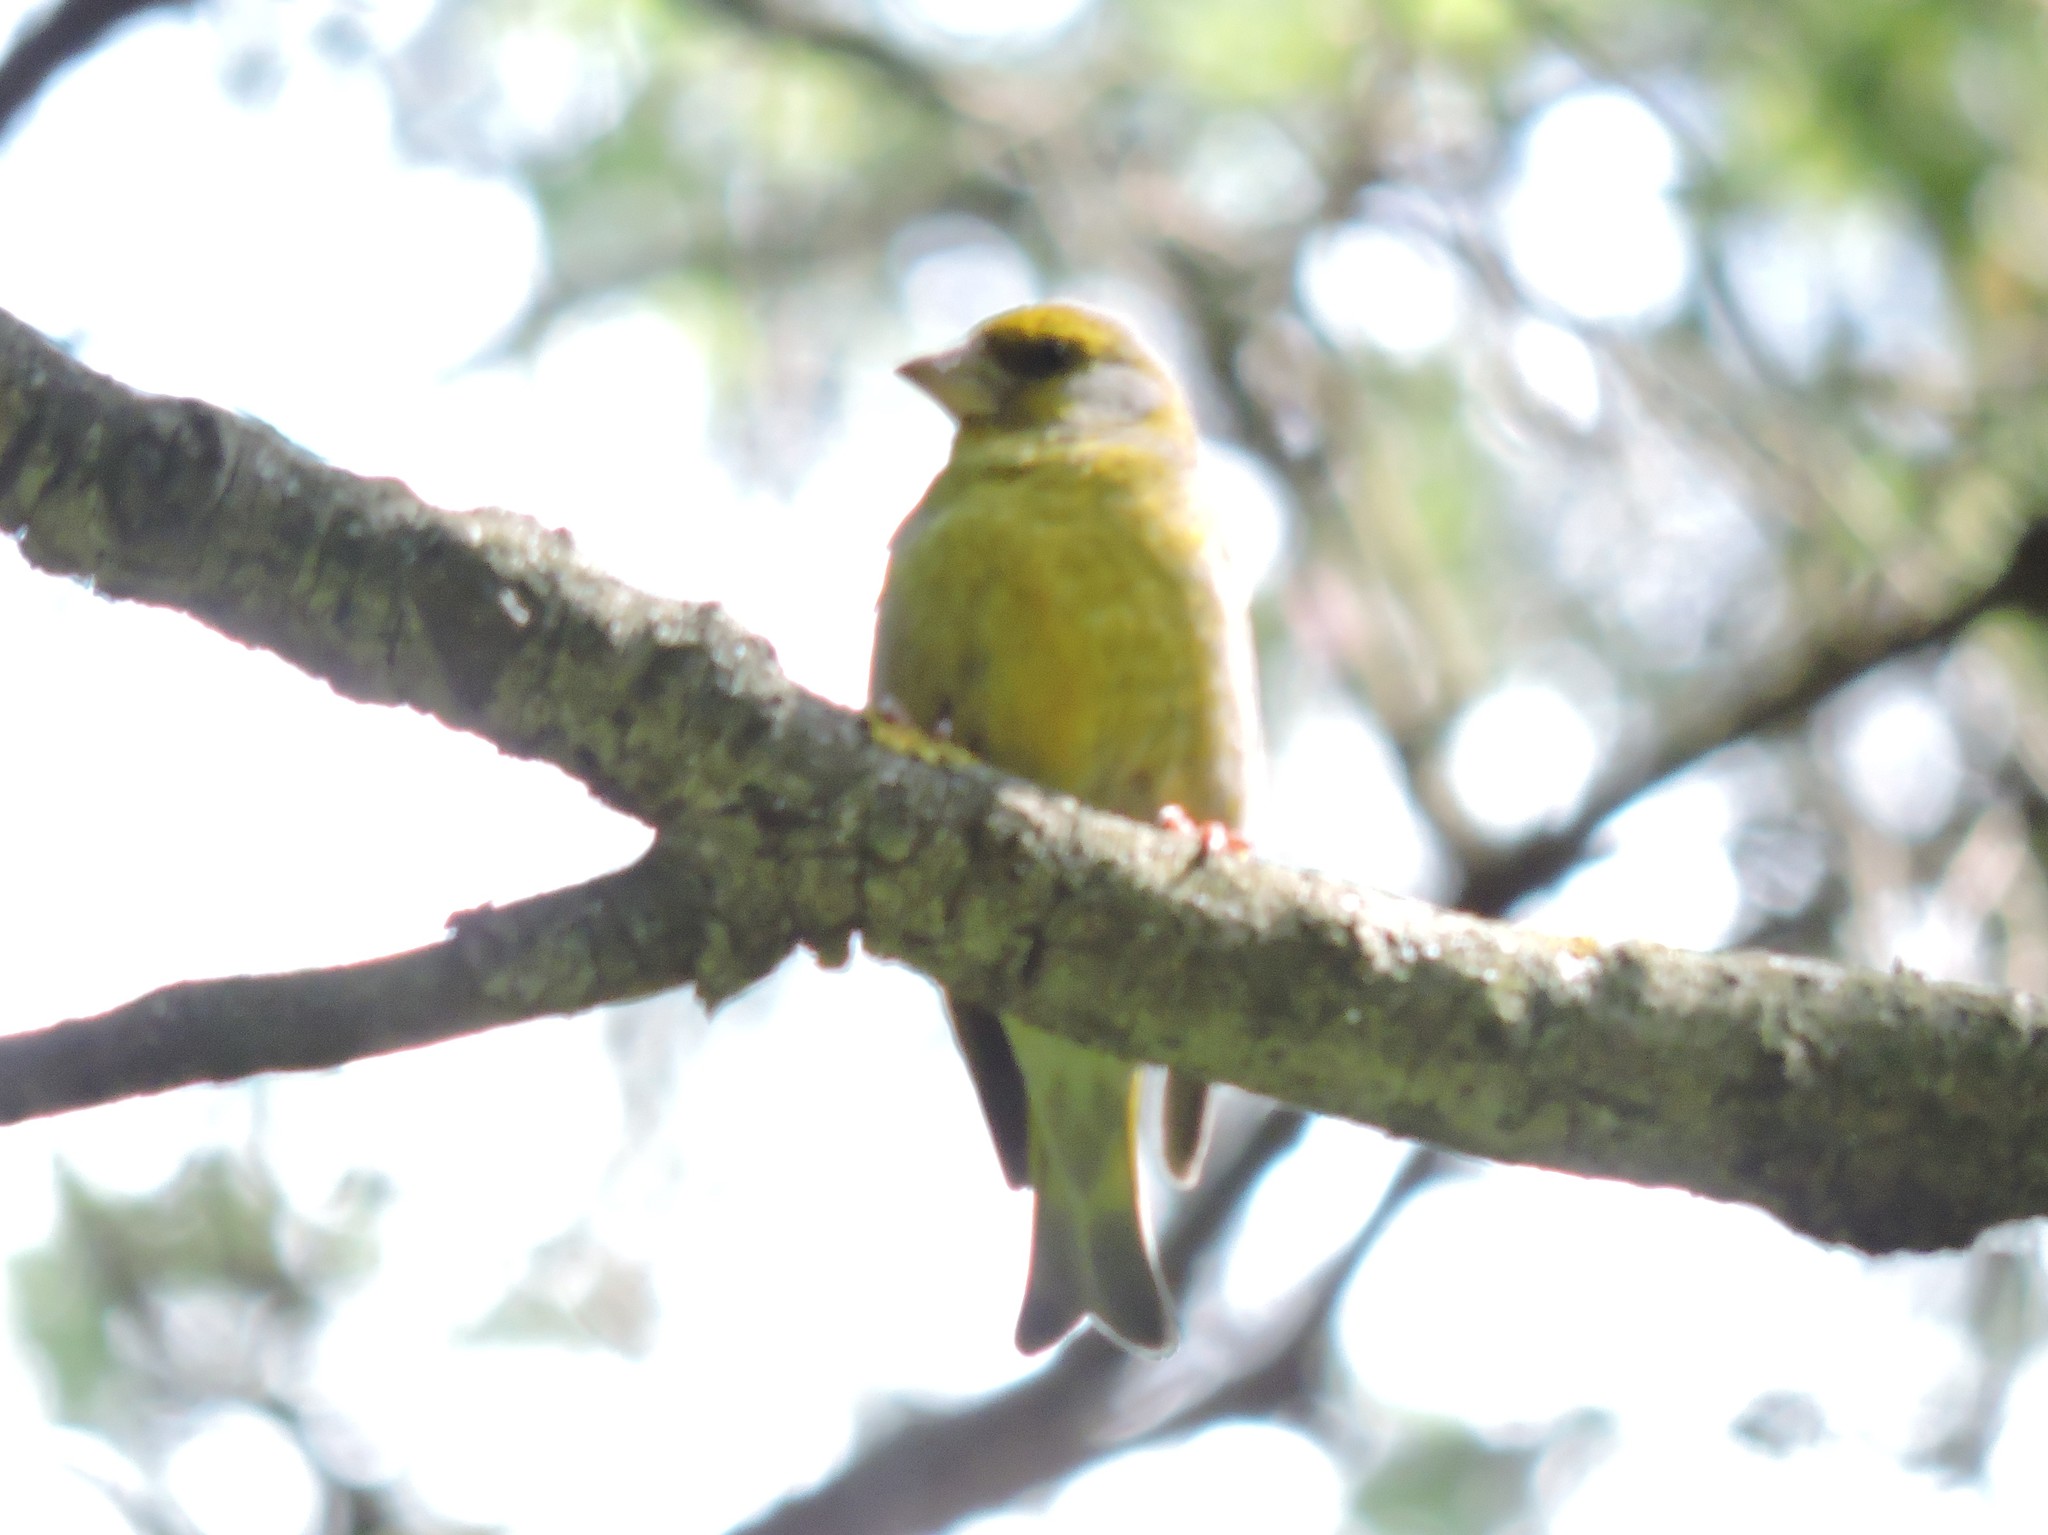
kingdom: Plantae
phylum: Tracheophyta
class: Liliopsida
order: Poales
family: Poaceae
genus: Chloris
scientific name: Chloris chloris
